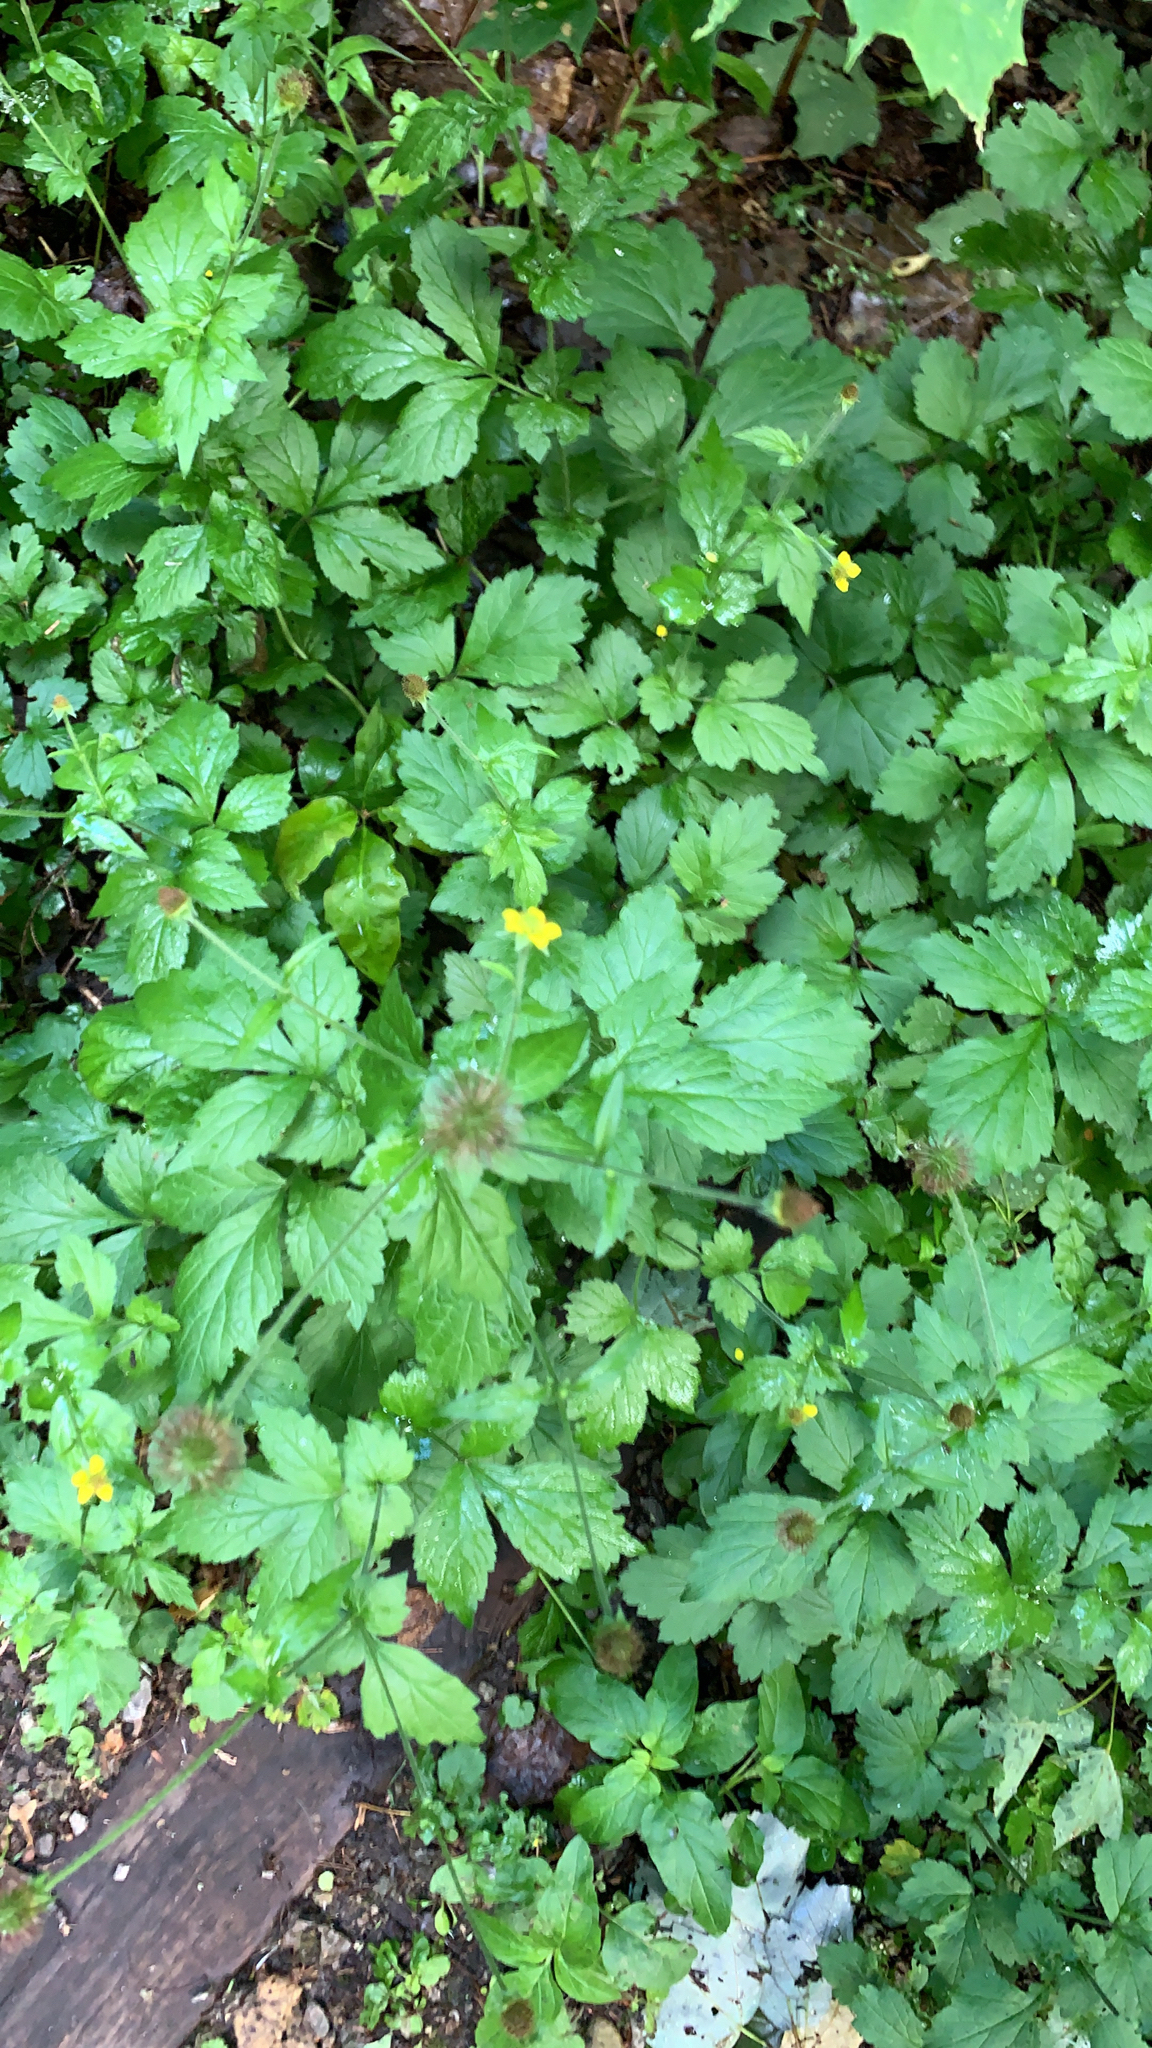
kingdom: Plantae
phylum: Tracheophyta
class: Magnoliopsida
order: Rosales
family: Rosaceae
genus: Geum
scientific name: Geum urbanum
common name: Wood avens
